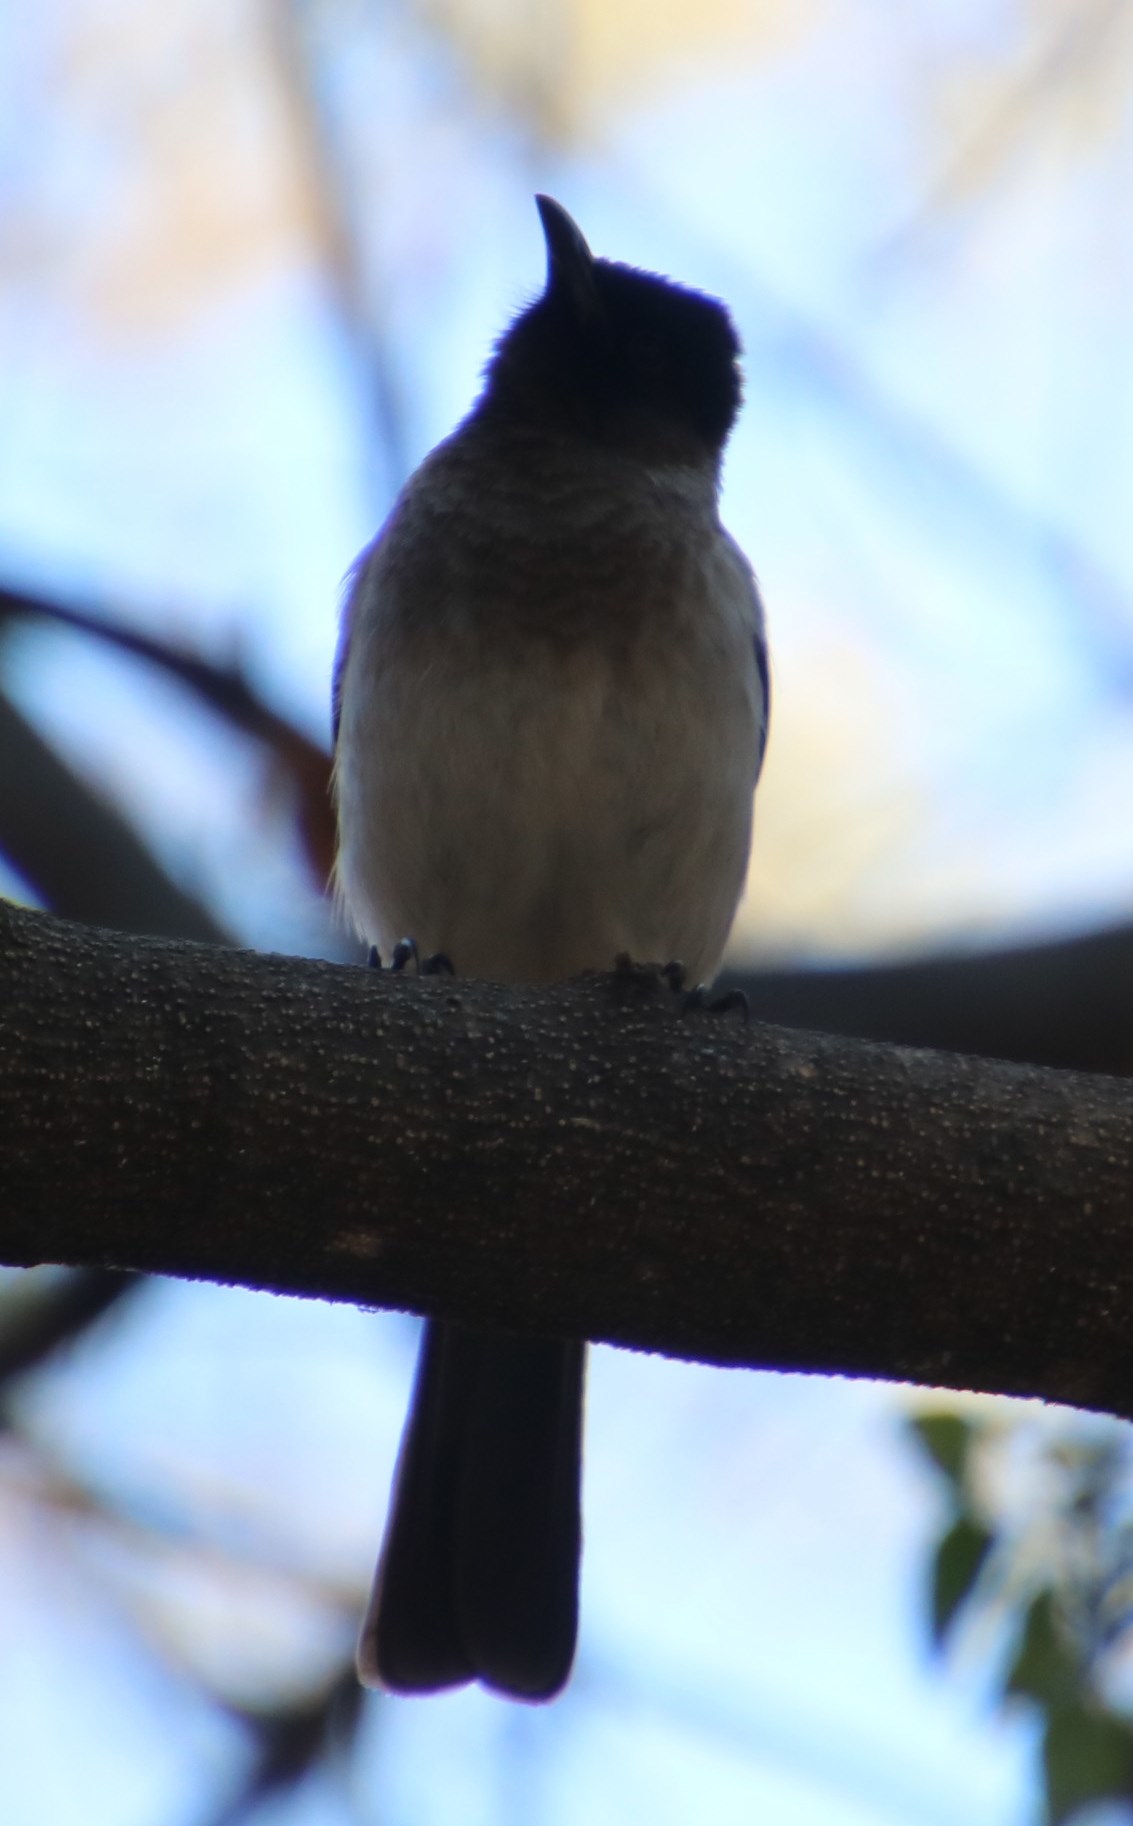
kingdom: Animalia
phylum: Chordata
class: Aves
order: Passeriformes
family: Pycnonotidae
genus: Pycnonotus
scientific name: Pycnonotus barbatus
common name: Common bulbul
